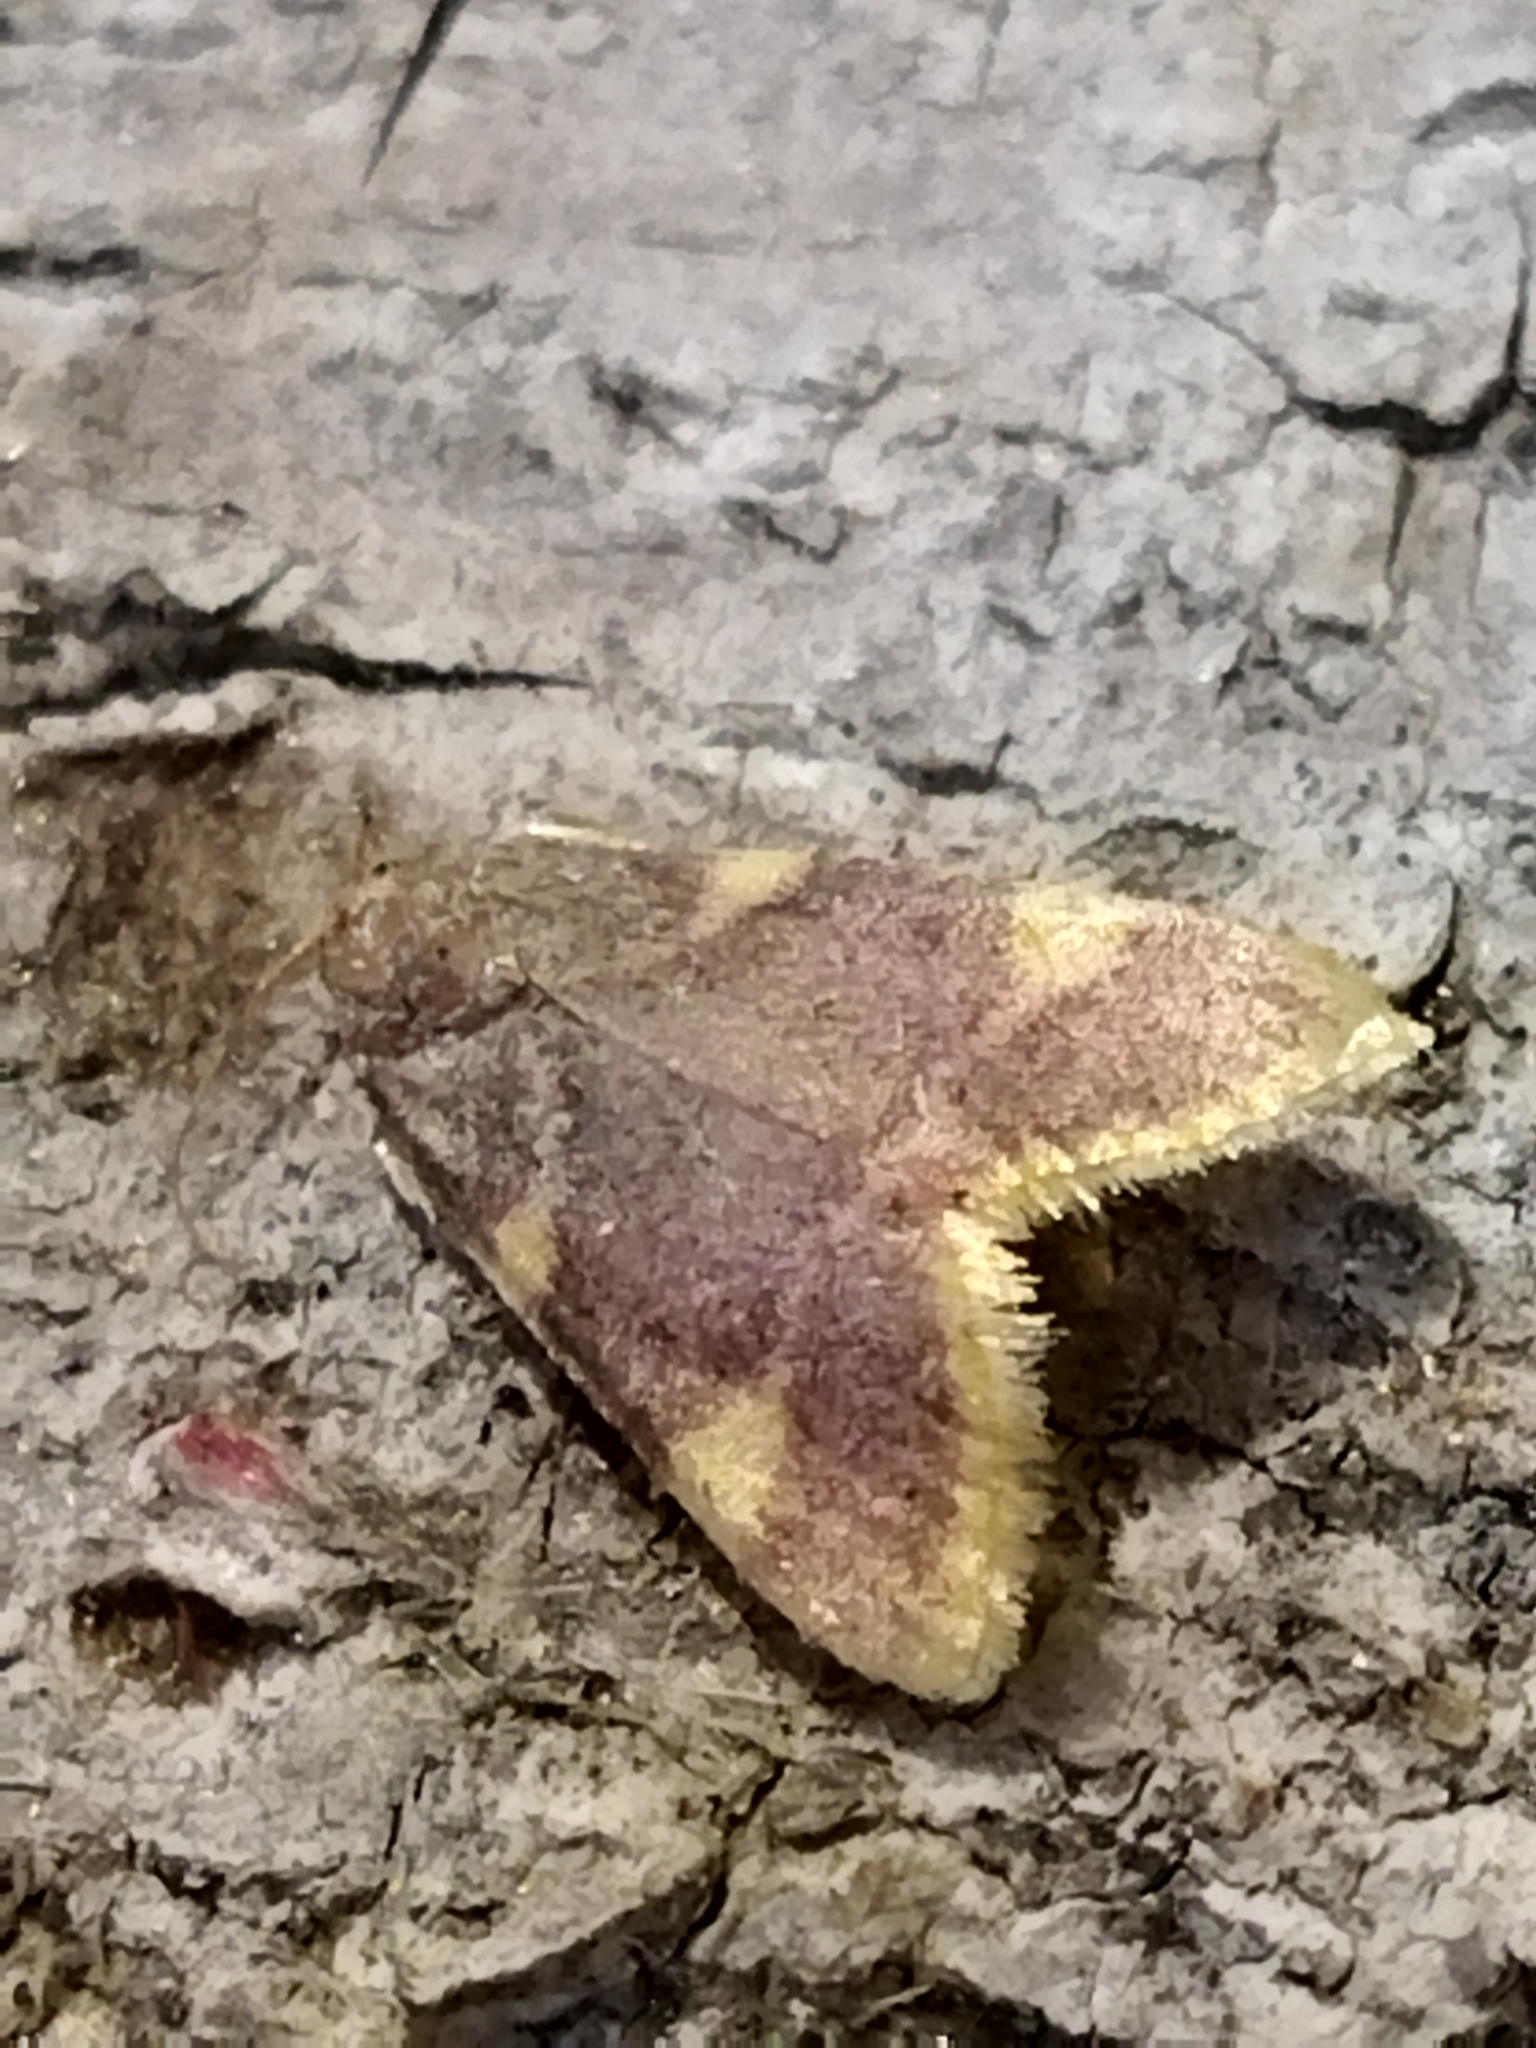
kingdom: Animalia
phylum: Arthropoda
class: Insecta
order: Lepidoptera
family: Pyralidae
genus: Hypsopygia
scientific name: Hypsopygia costalis
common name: Gold triangle
